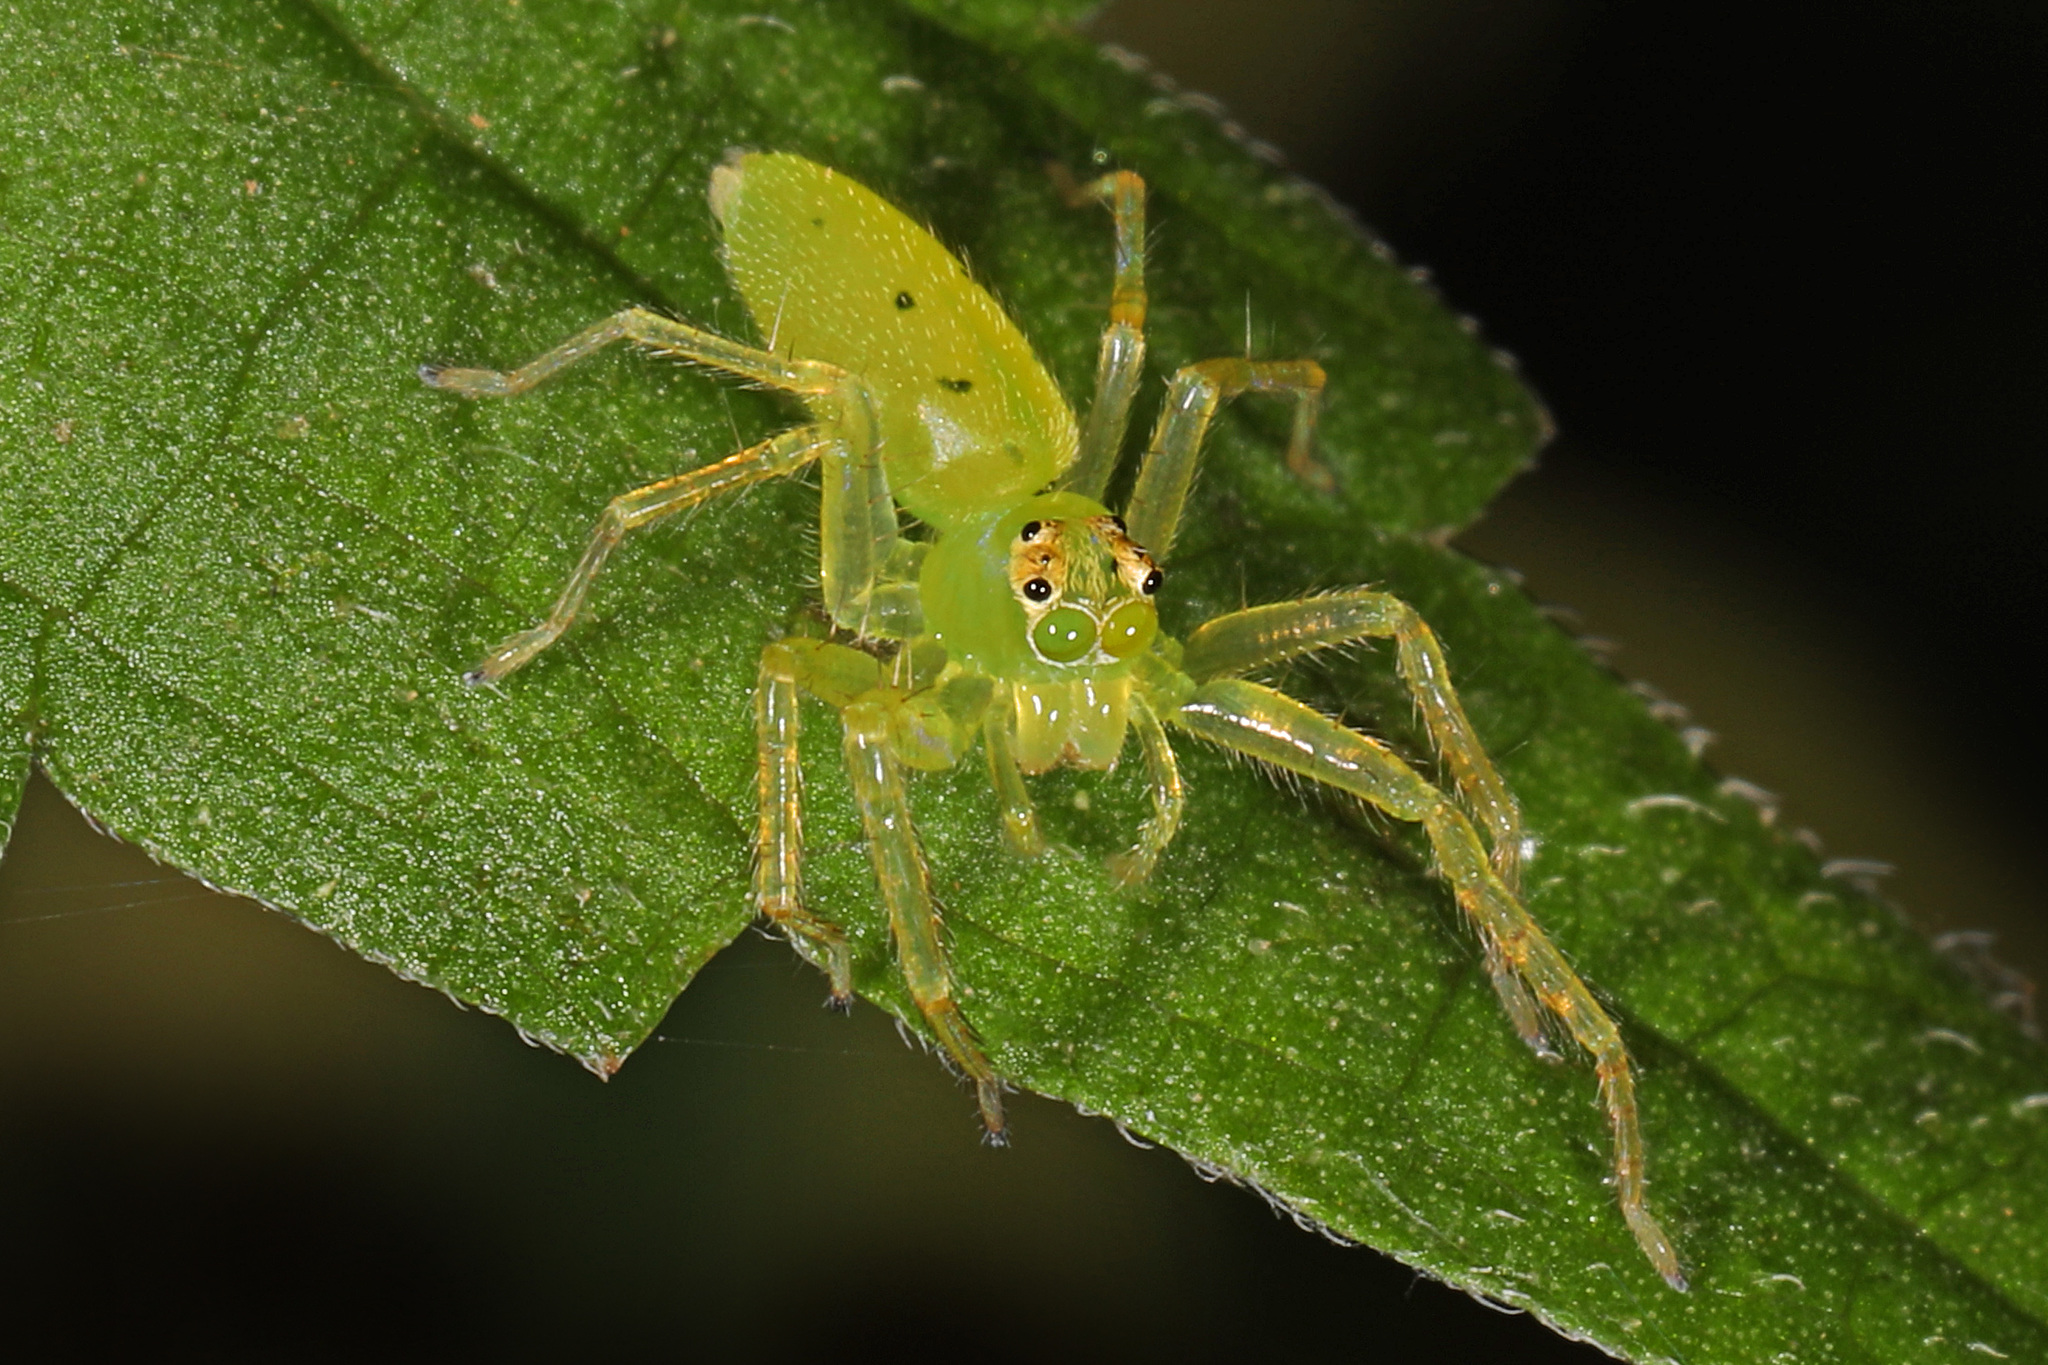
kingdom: Animalia
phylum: Arthropoda
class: Arachnida
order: Araneae
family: Salticidae
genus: Lyssomanes
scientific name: Lyssomanes viridis
